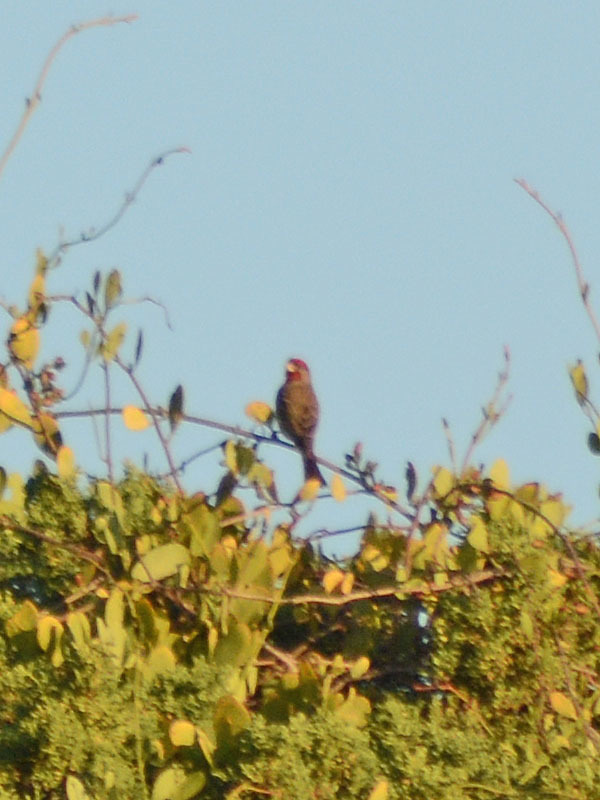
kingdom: Animalia
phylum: Chordata
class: Aves
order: Passeriformes
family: Fringillidae
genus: Haemorhous
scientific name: Haemorhous mexicanus
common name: House finch
